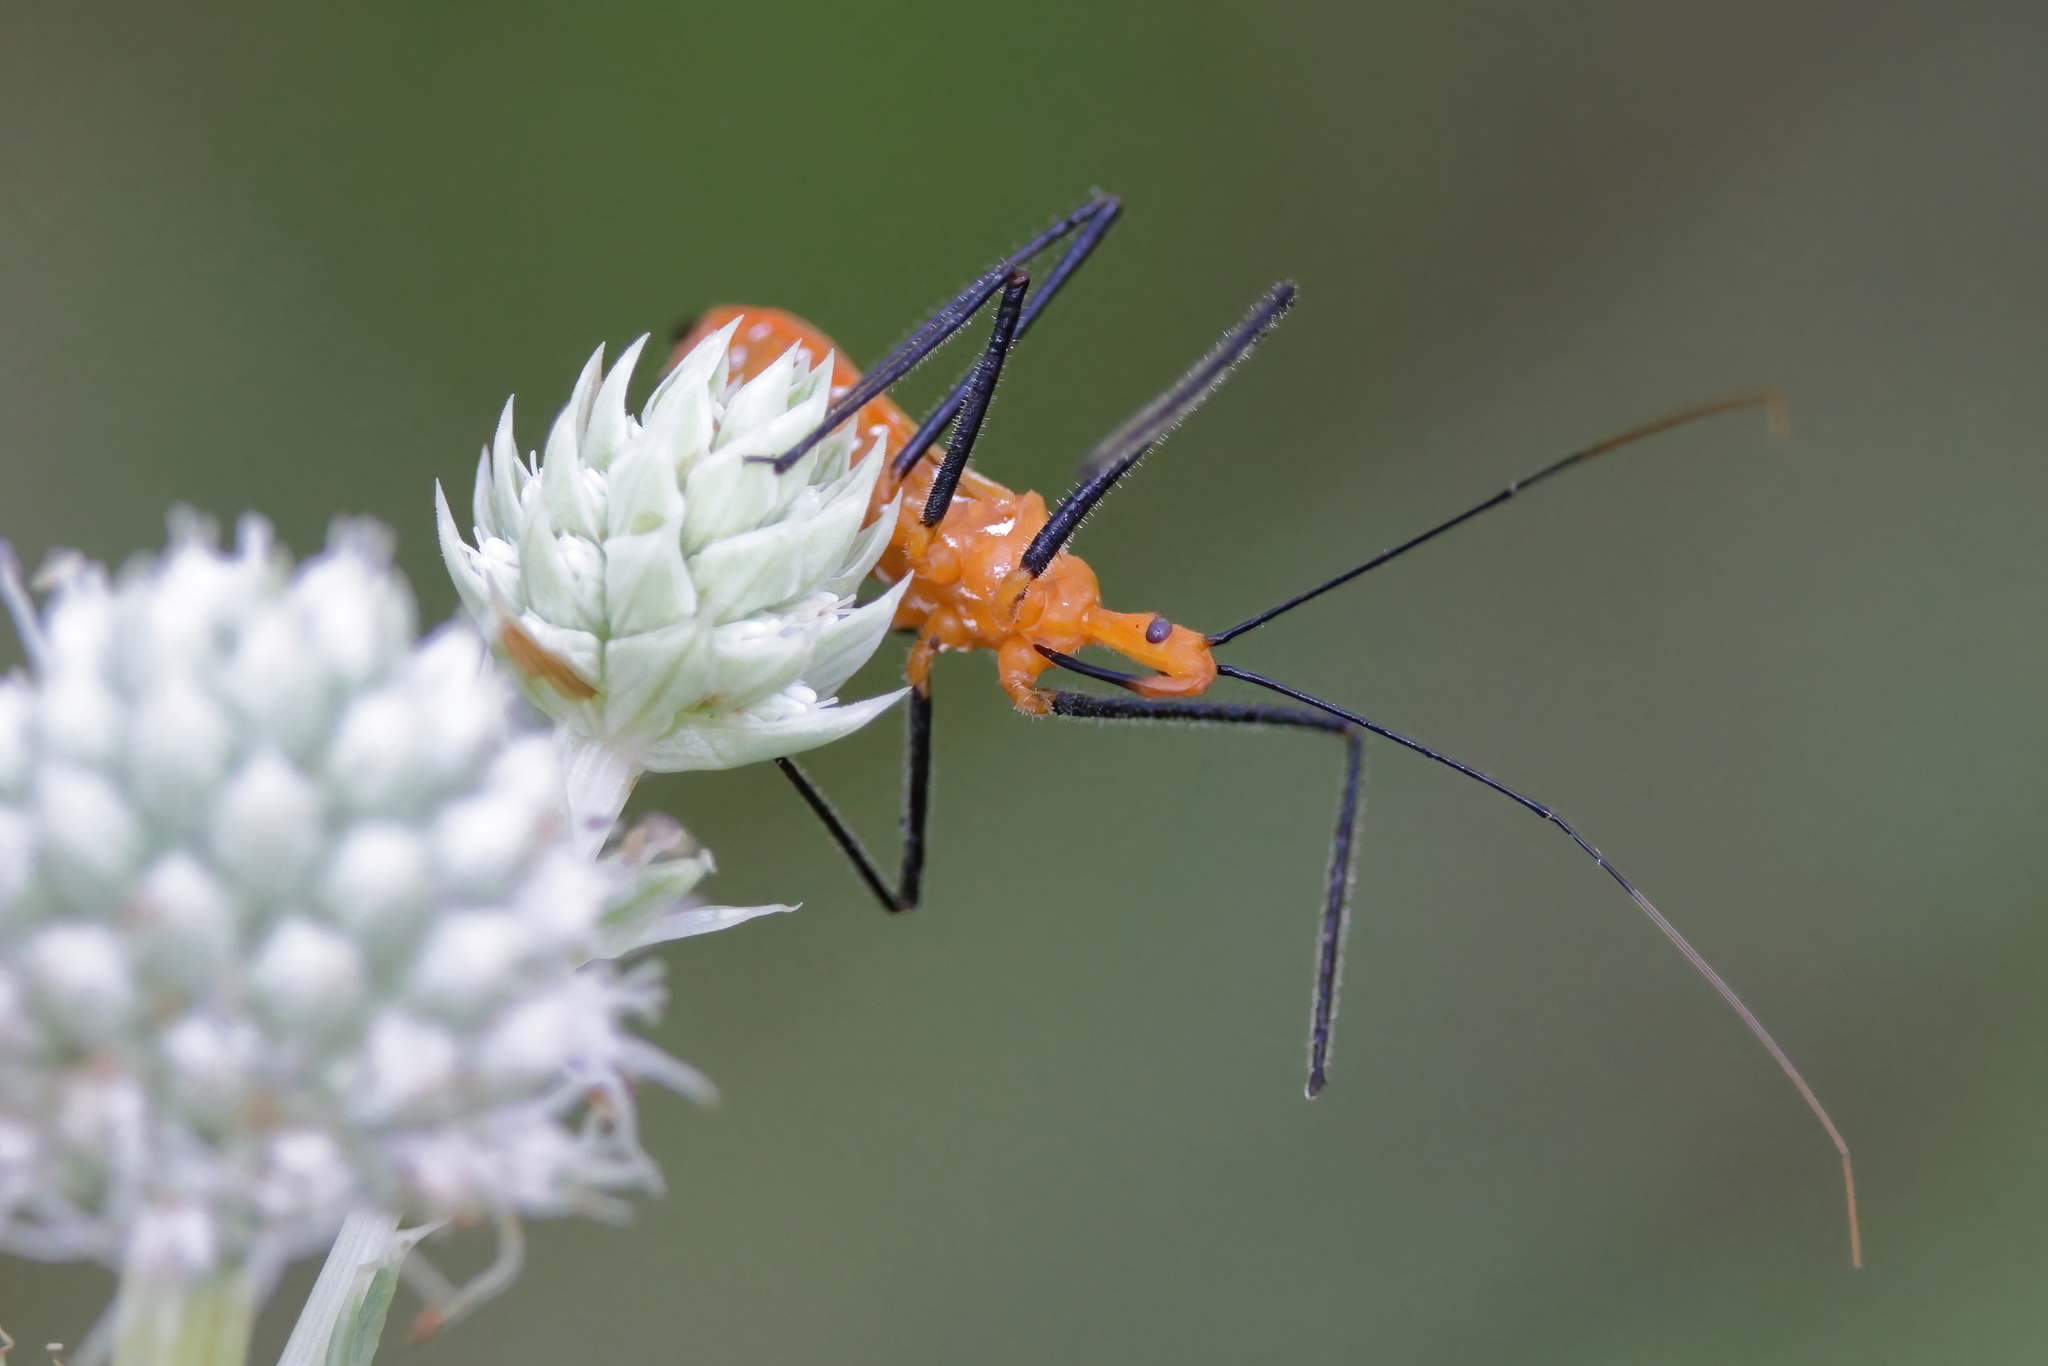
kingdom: Animalia
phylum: Arthropoda
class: Insecta
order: Hemiptera
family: Reduviidae
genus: Zelus
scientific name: Zelus longipes
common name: Milkweed assassin bug
